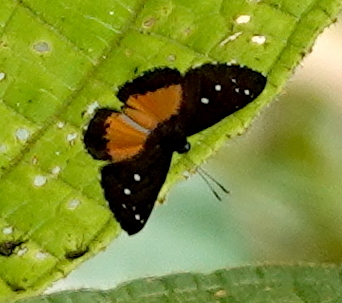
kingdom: Animalia
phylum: Arthropoda
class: Insecta
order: Lepidoptera
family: Riodinidae
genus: Echenais
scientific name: Echenais telephus
